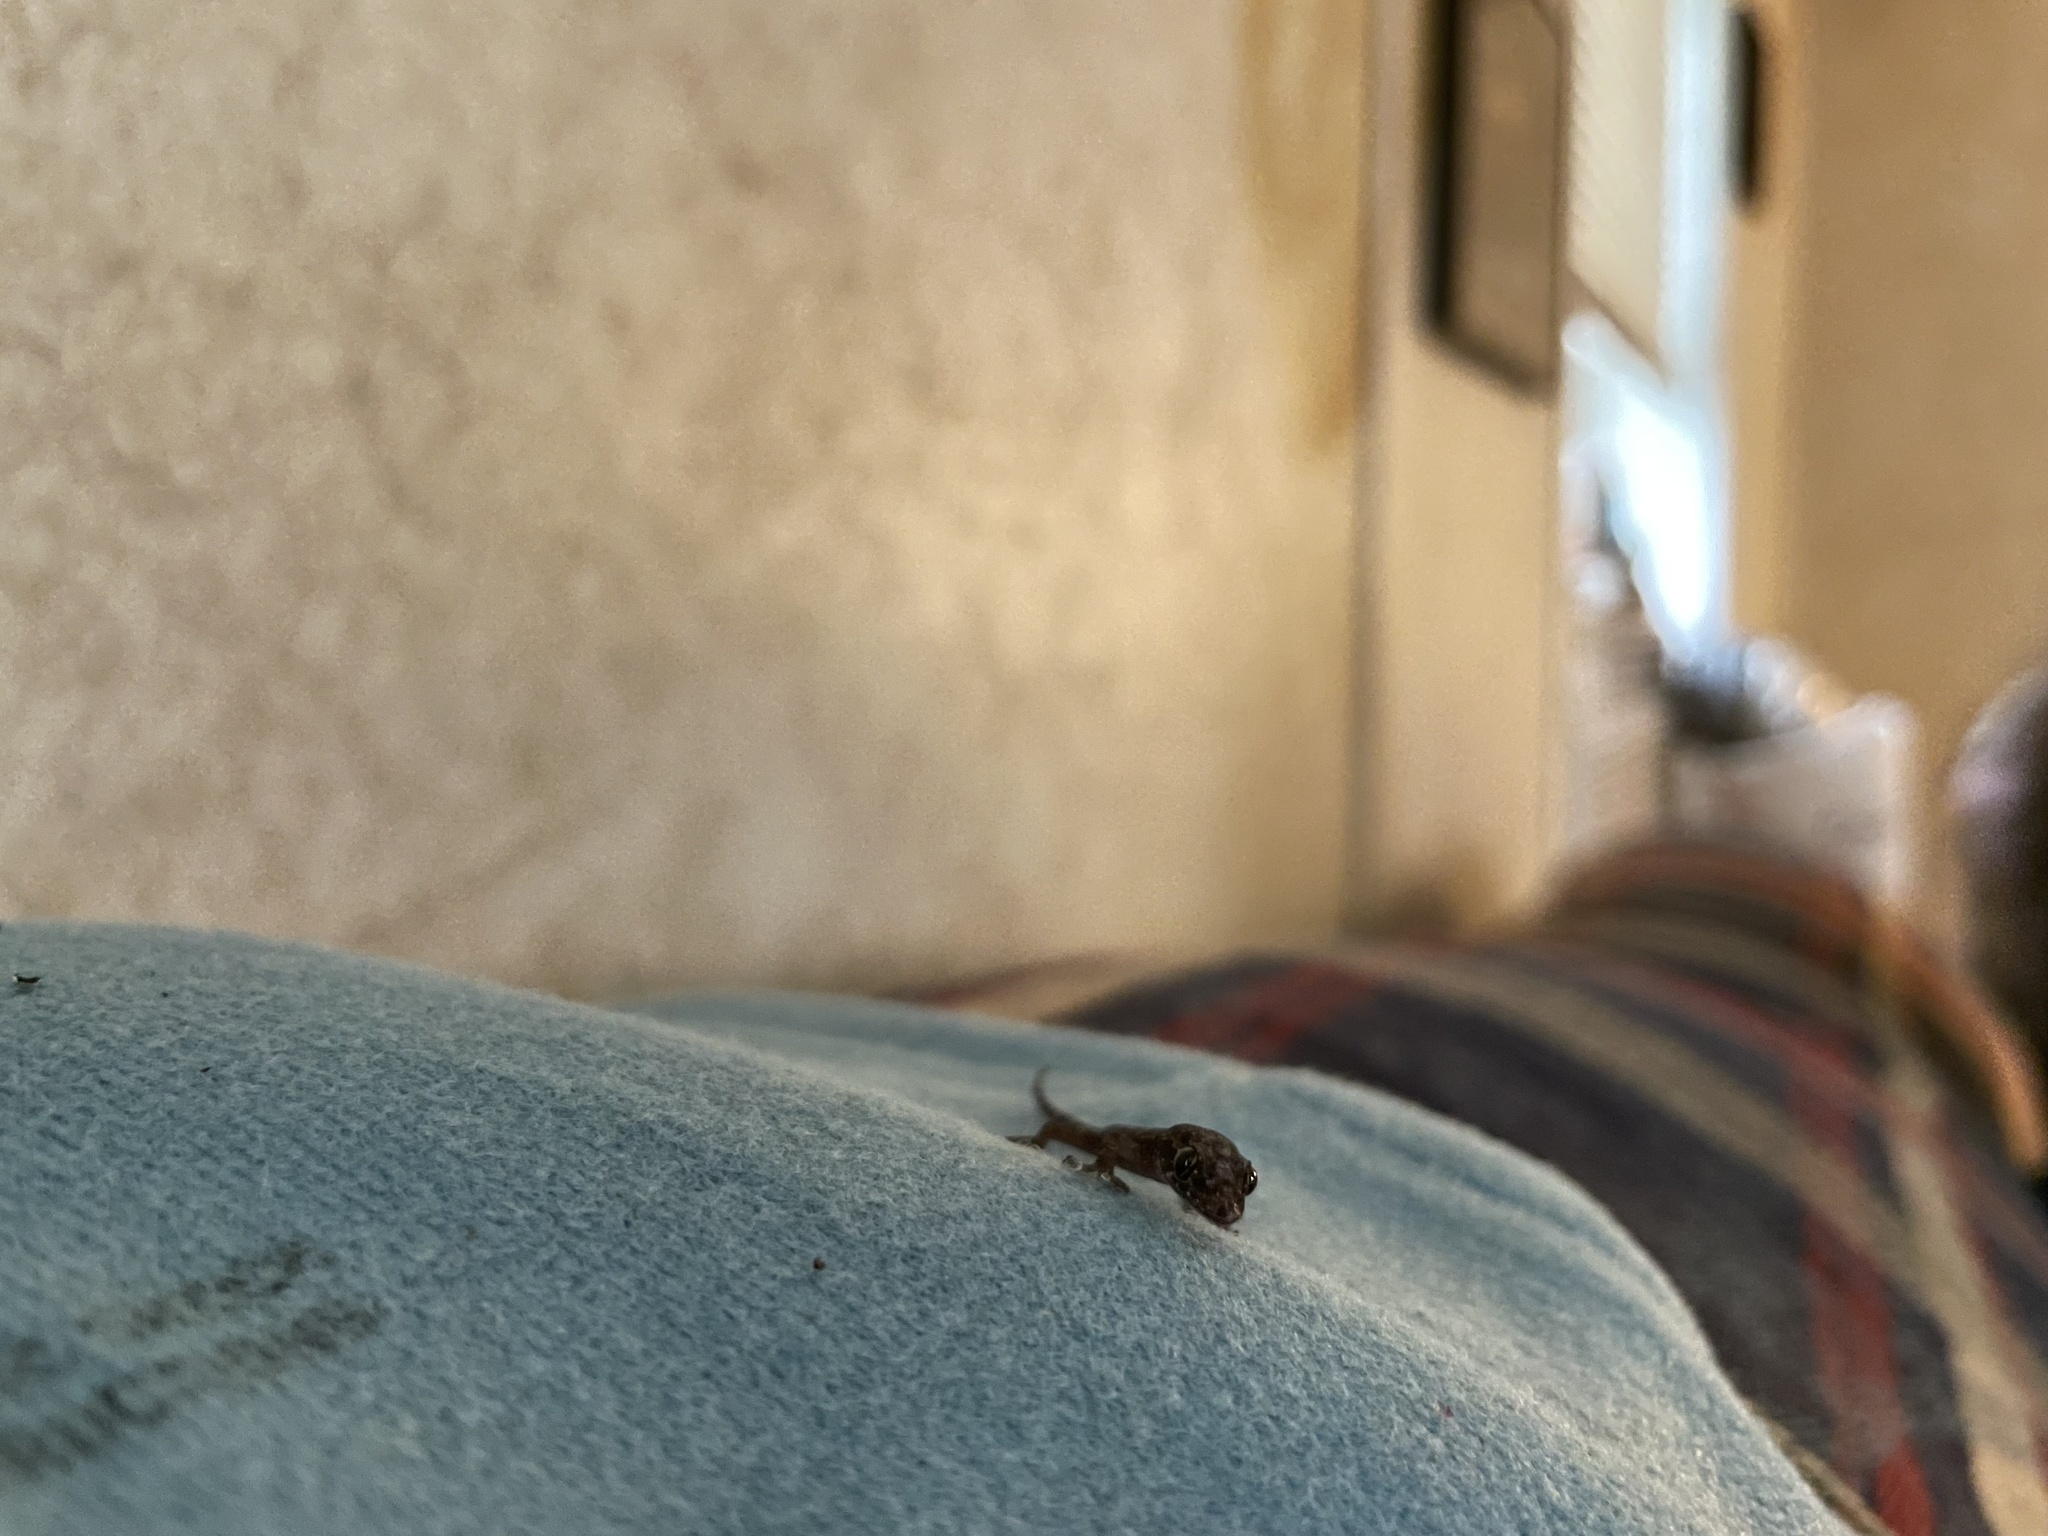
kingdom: Animalia
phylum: Chordata
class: Squamata
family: Gekkonidae
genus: Hemidactylus
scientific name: Hemidactylus mabouia
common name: House gecko
